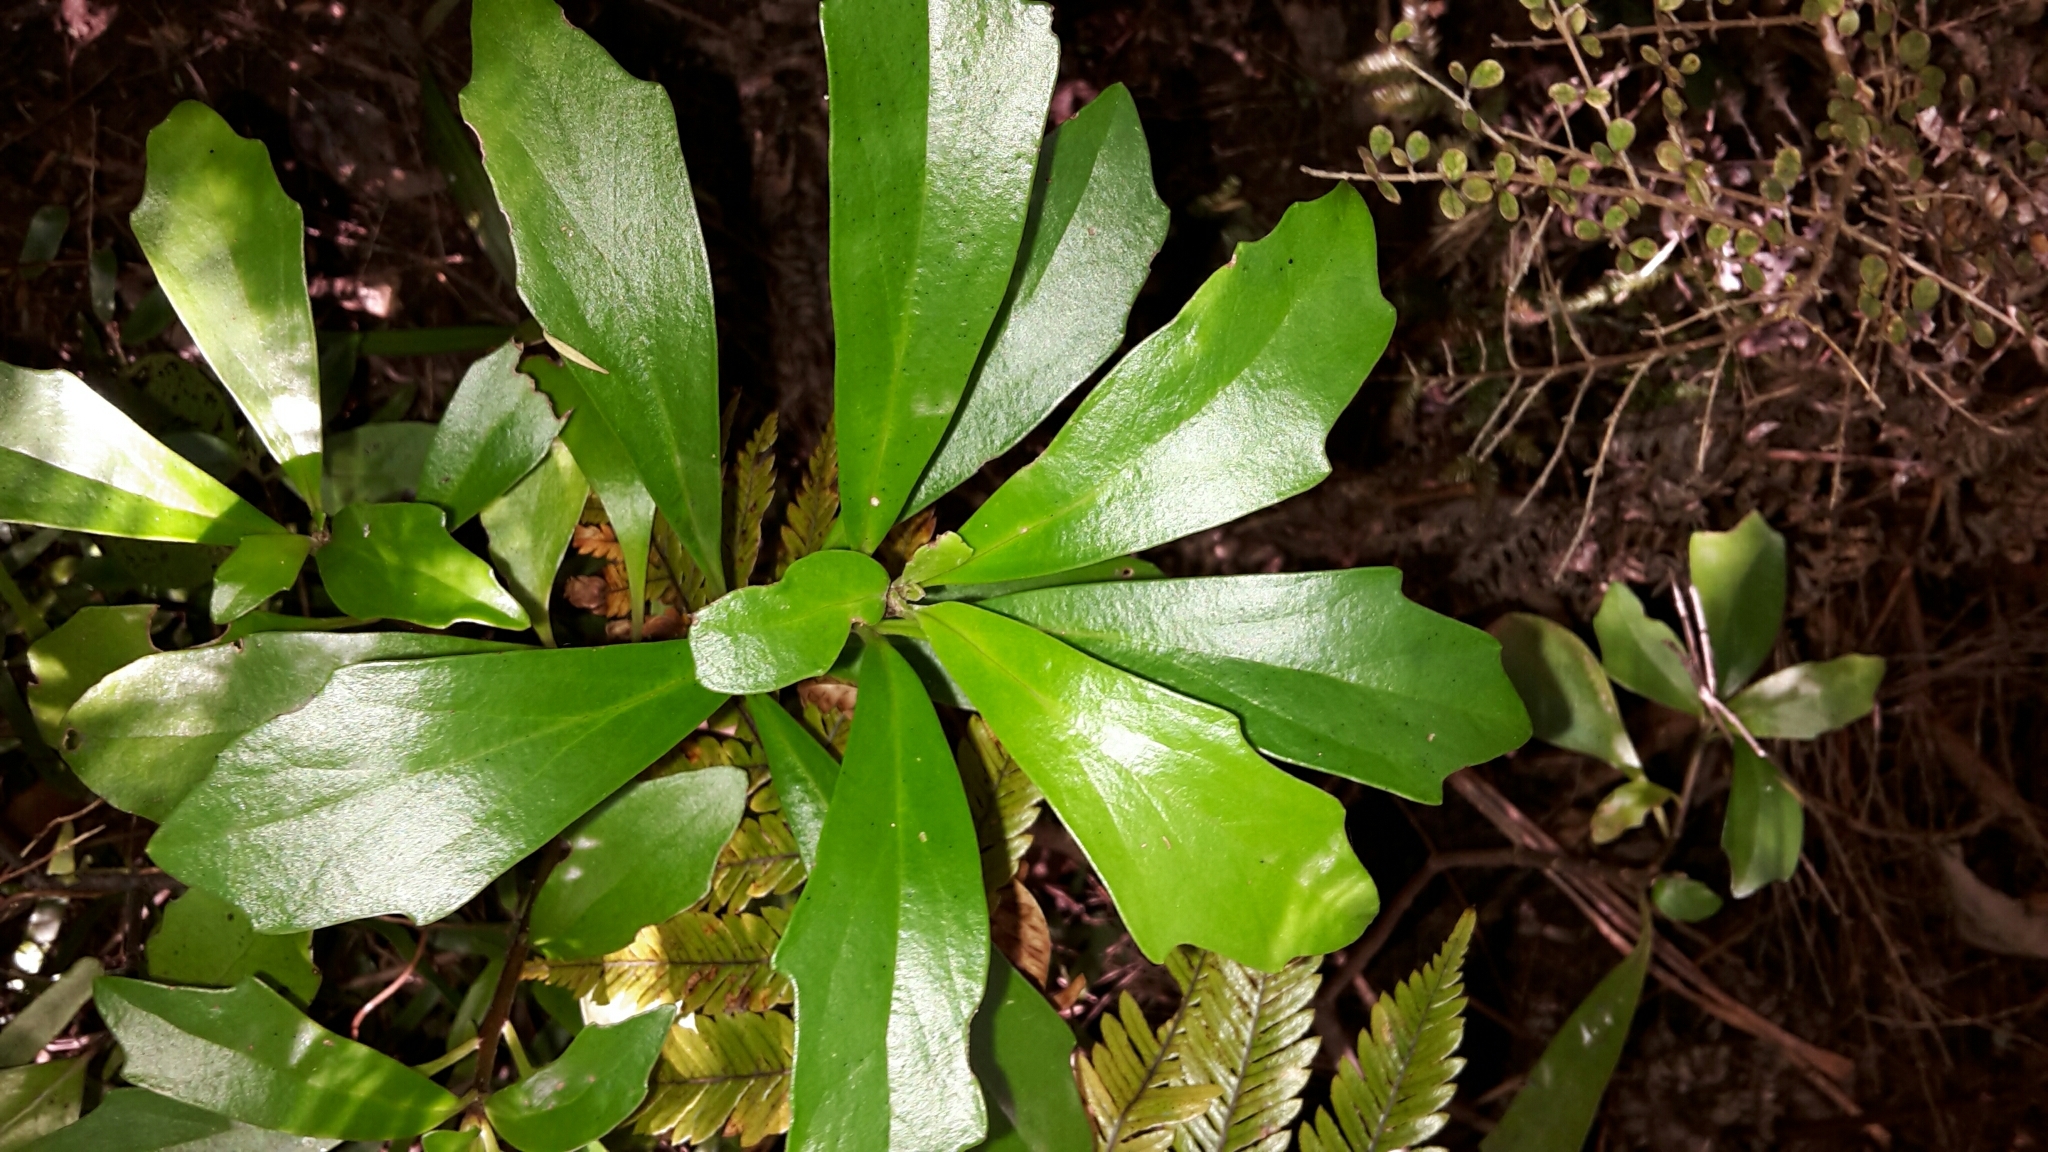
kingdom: Plantae
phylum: Tracheophyta
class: Magnoliopsida
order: Asterales
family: Asteraceae
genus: Brachyglottis
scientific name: Brachyglottis kirkii
